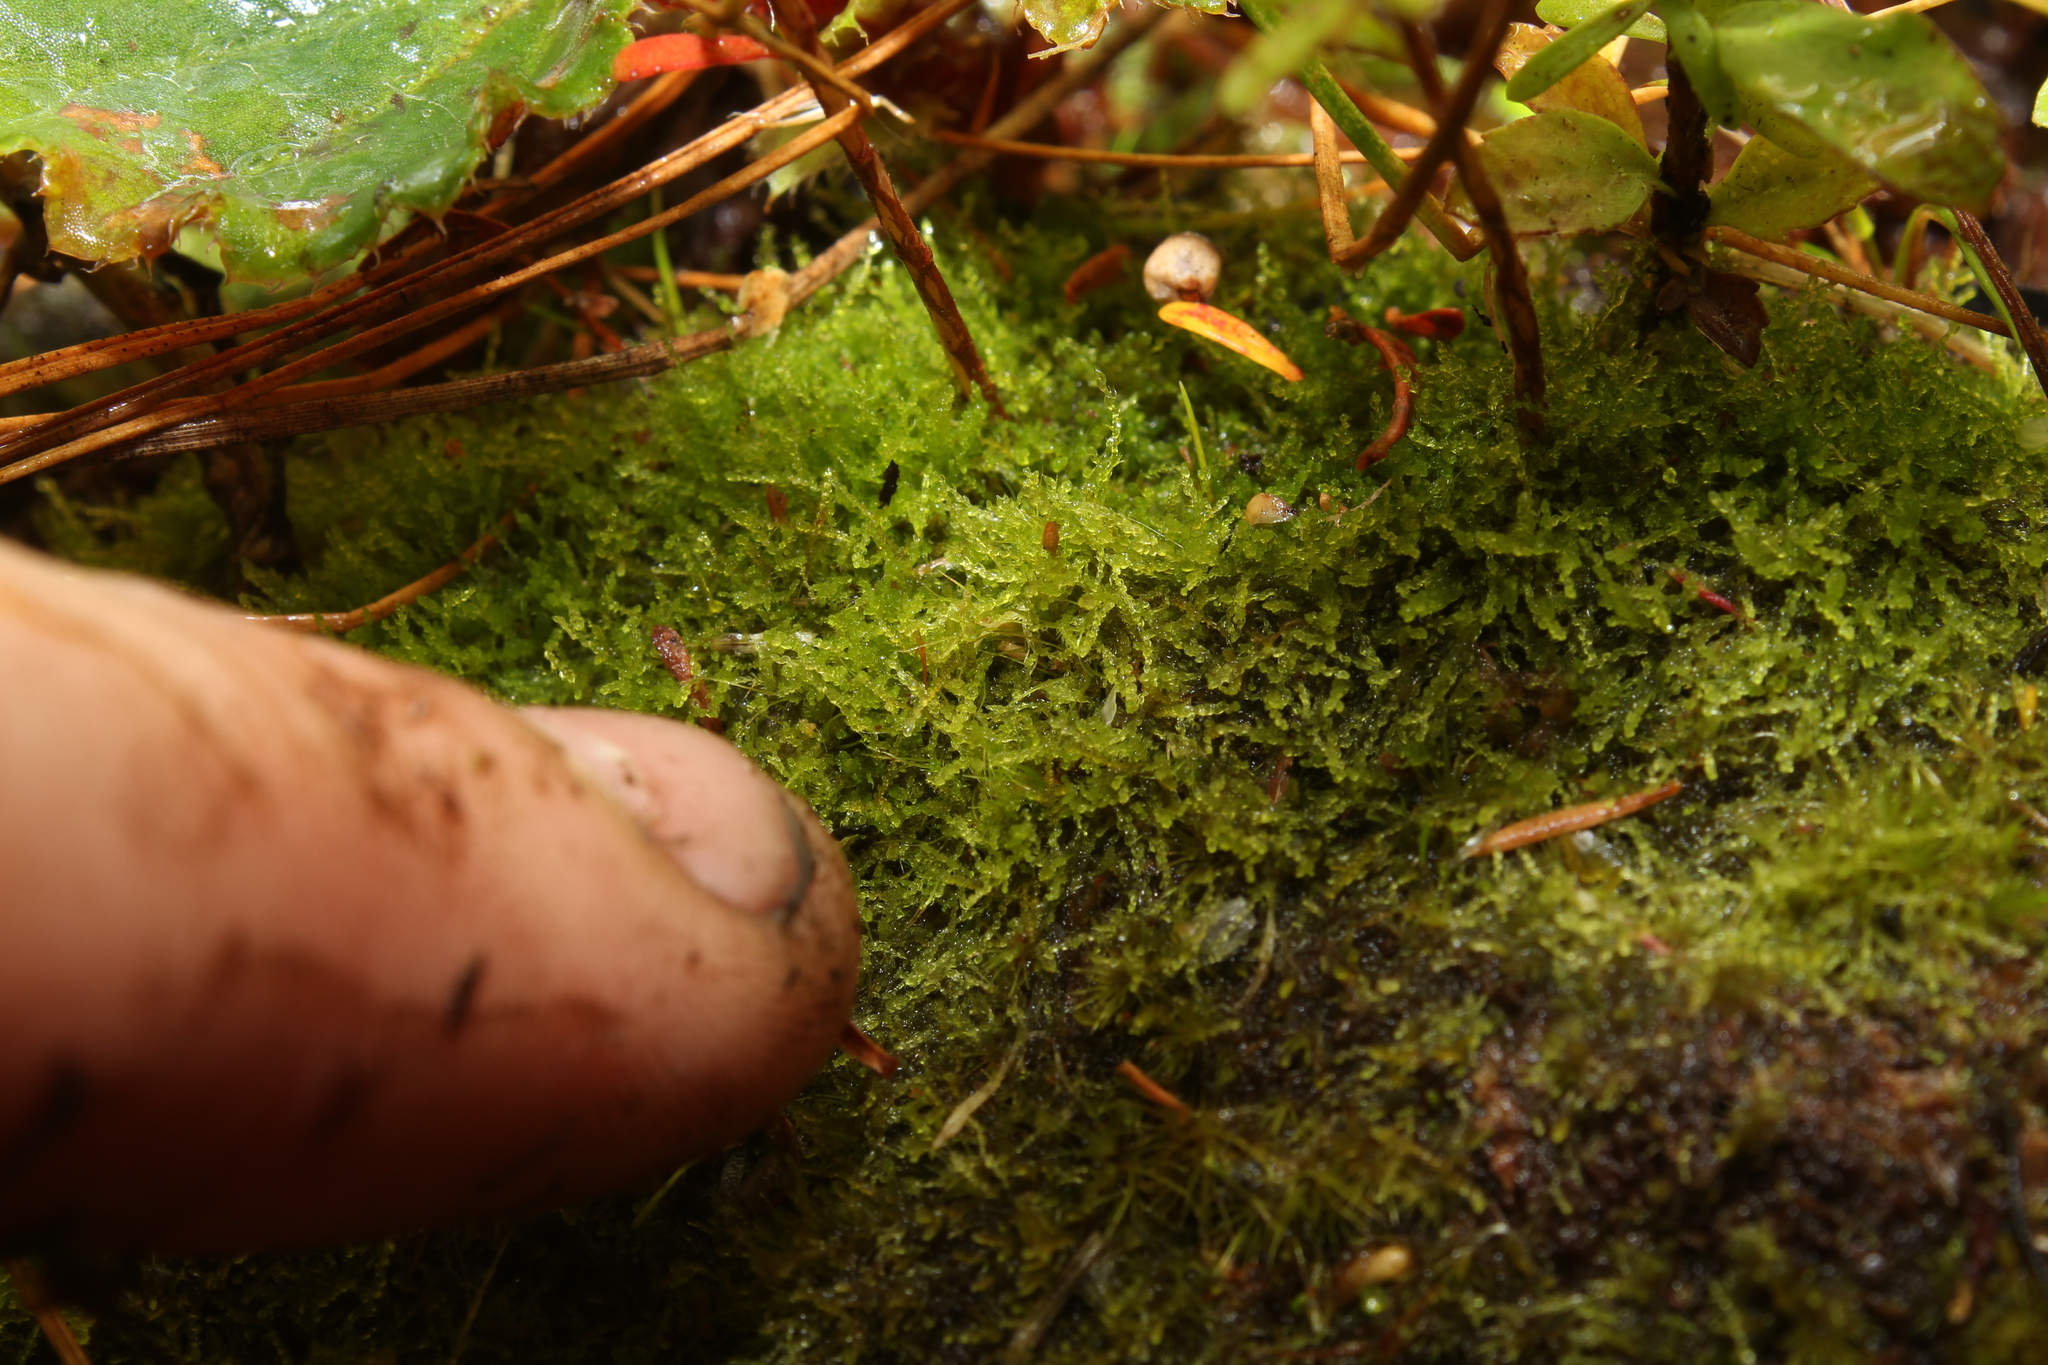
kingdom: Plantae
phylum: Marchantiophyta
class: Jungermanniopsida
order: Jungermanniales
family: Lepidoziaceae
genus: Paracromastigum
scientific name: Paracromastigum longiscyphum
